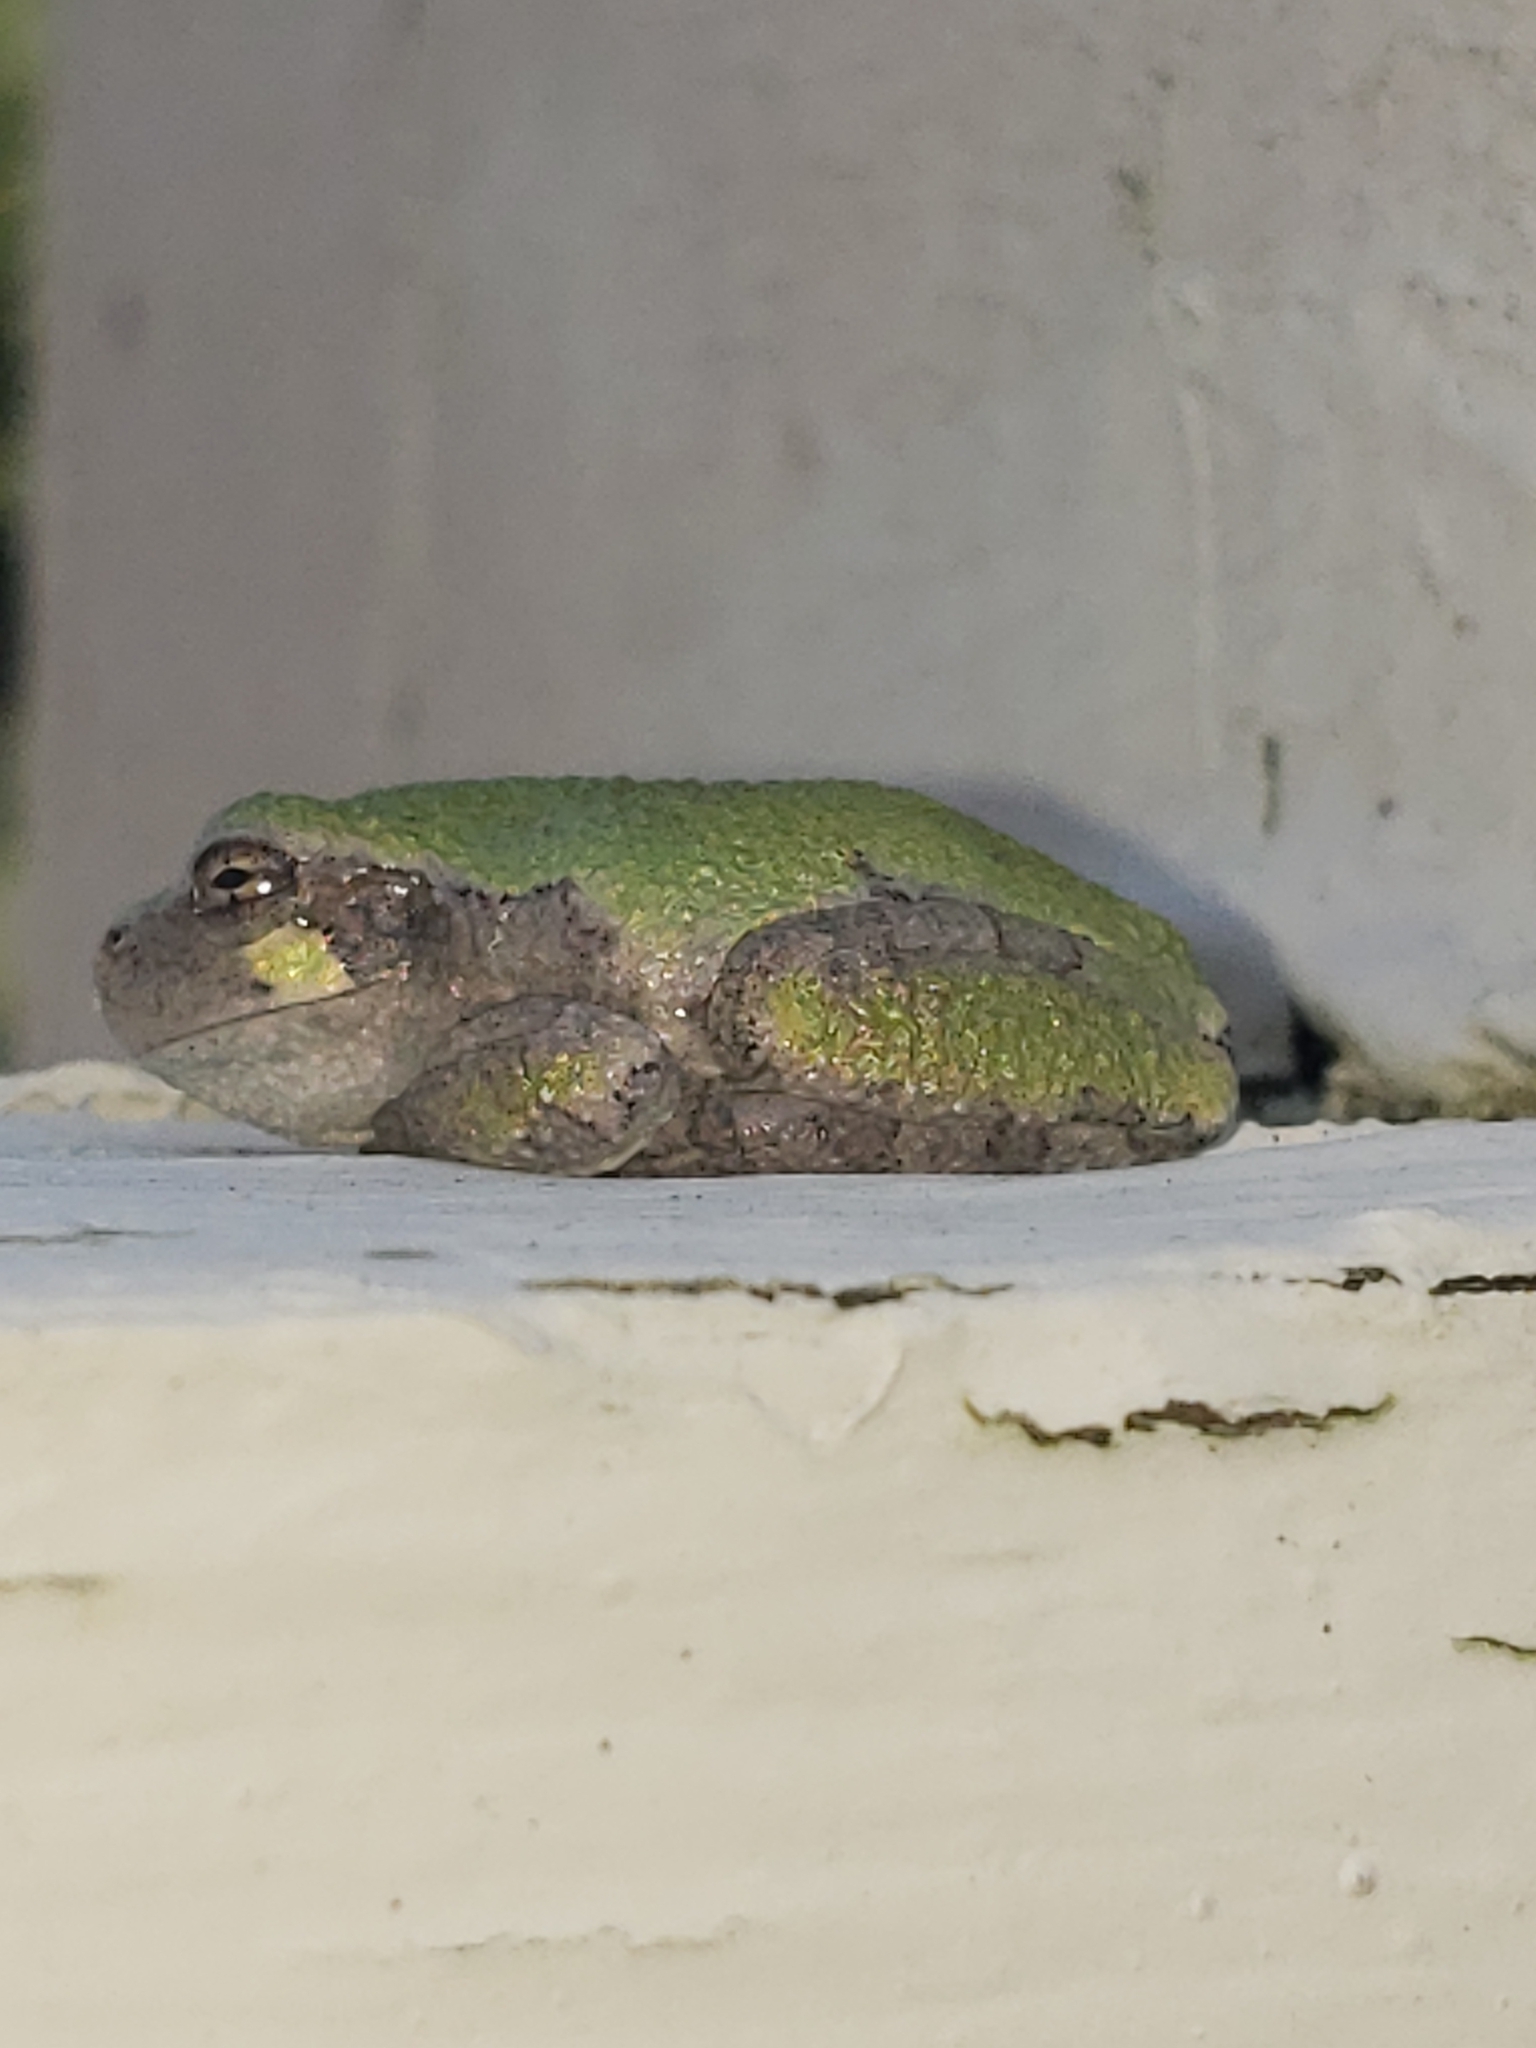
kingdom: Animalia
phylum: Chordata
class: Amphibia
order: Anura
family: Hylidae
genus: Hyla
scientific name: Hyla
